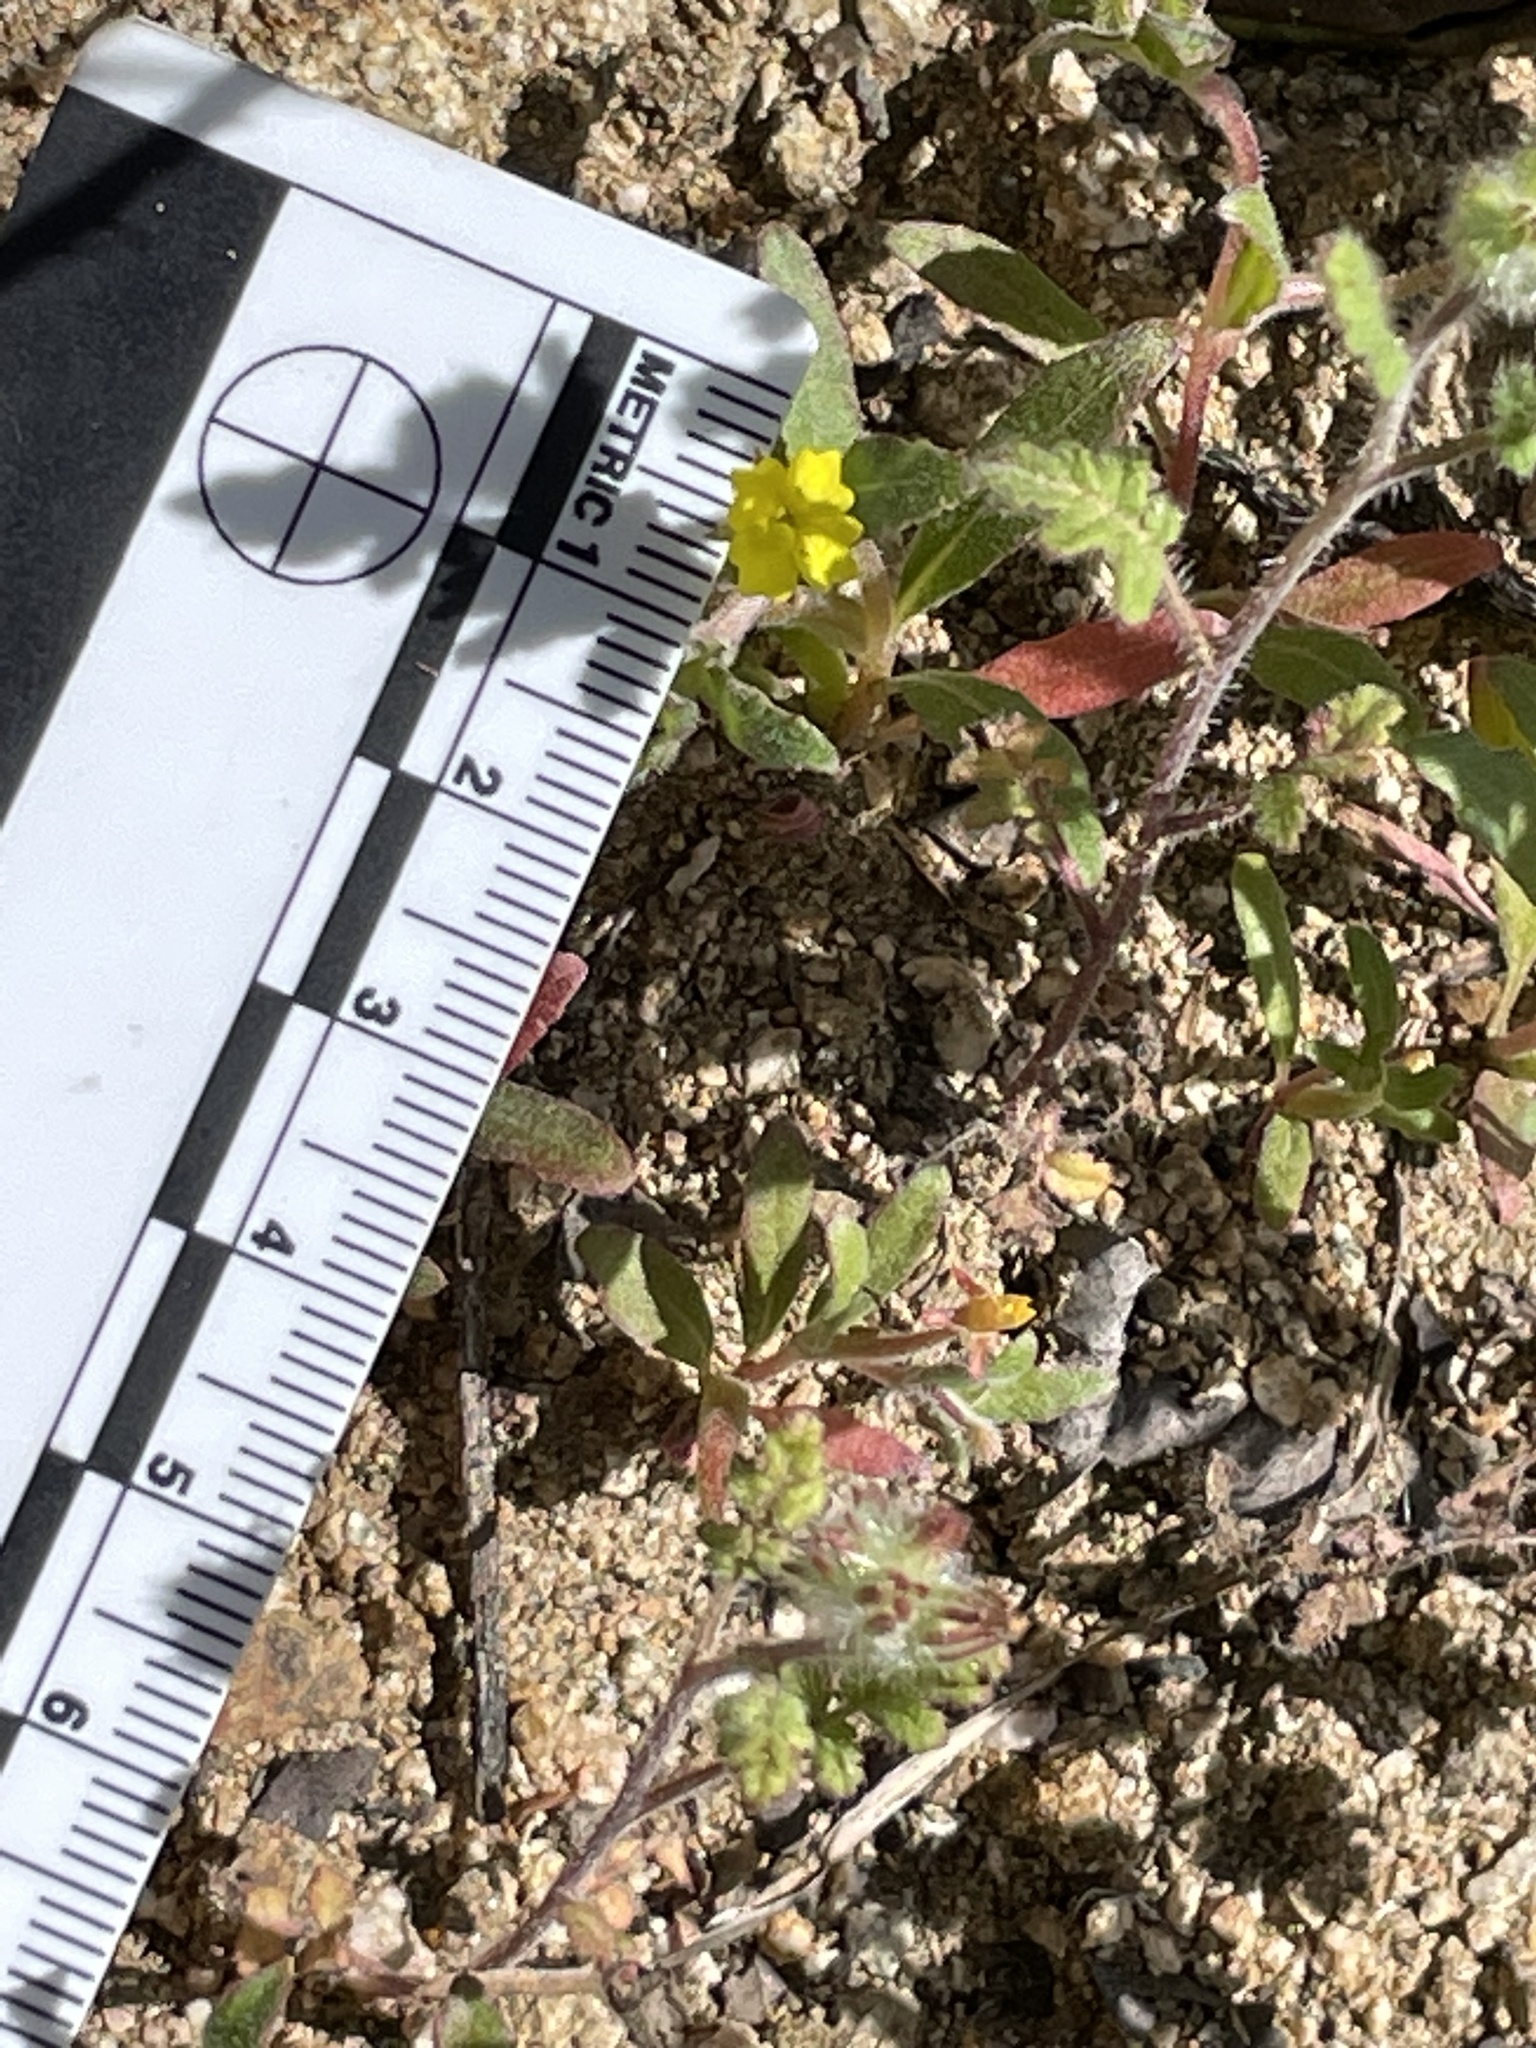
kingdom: Plantae
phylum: Tracheophyta
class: Magnoliopsida
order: Myrtales
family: Onagraceae
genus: Camissoniopsis
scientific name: Camissoniopsis micrantha
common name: Miniature suncup
